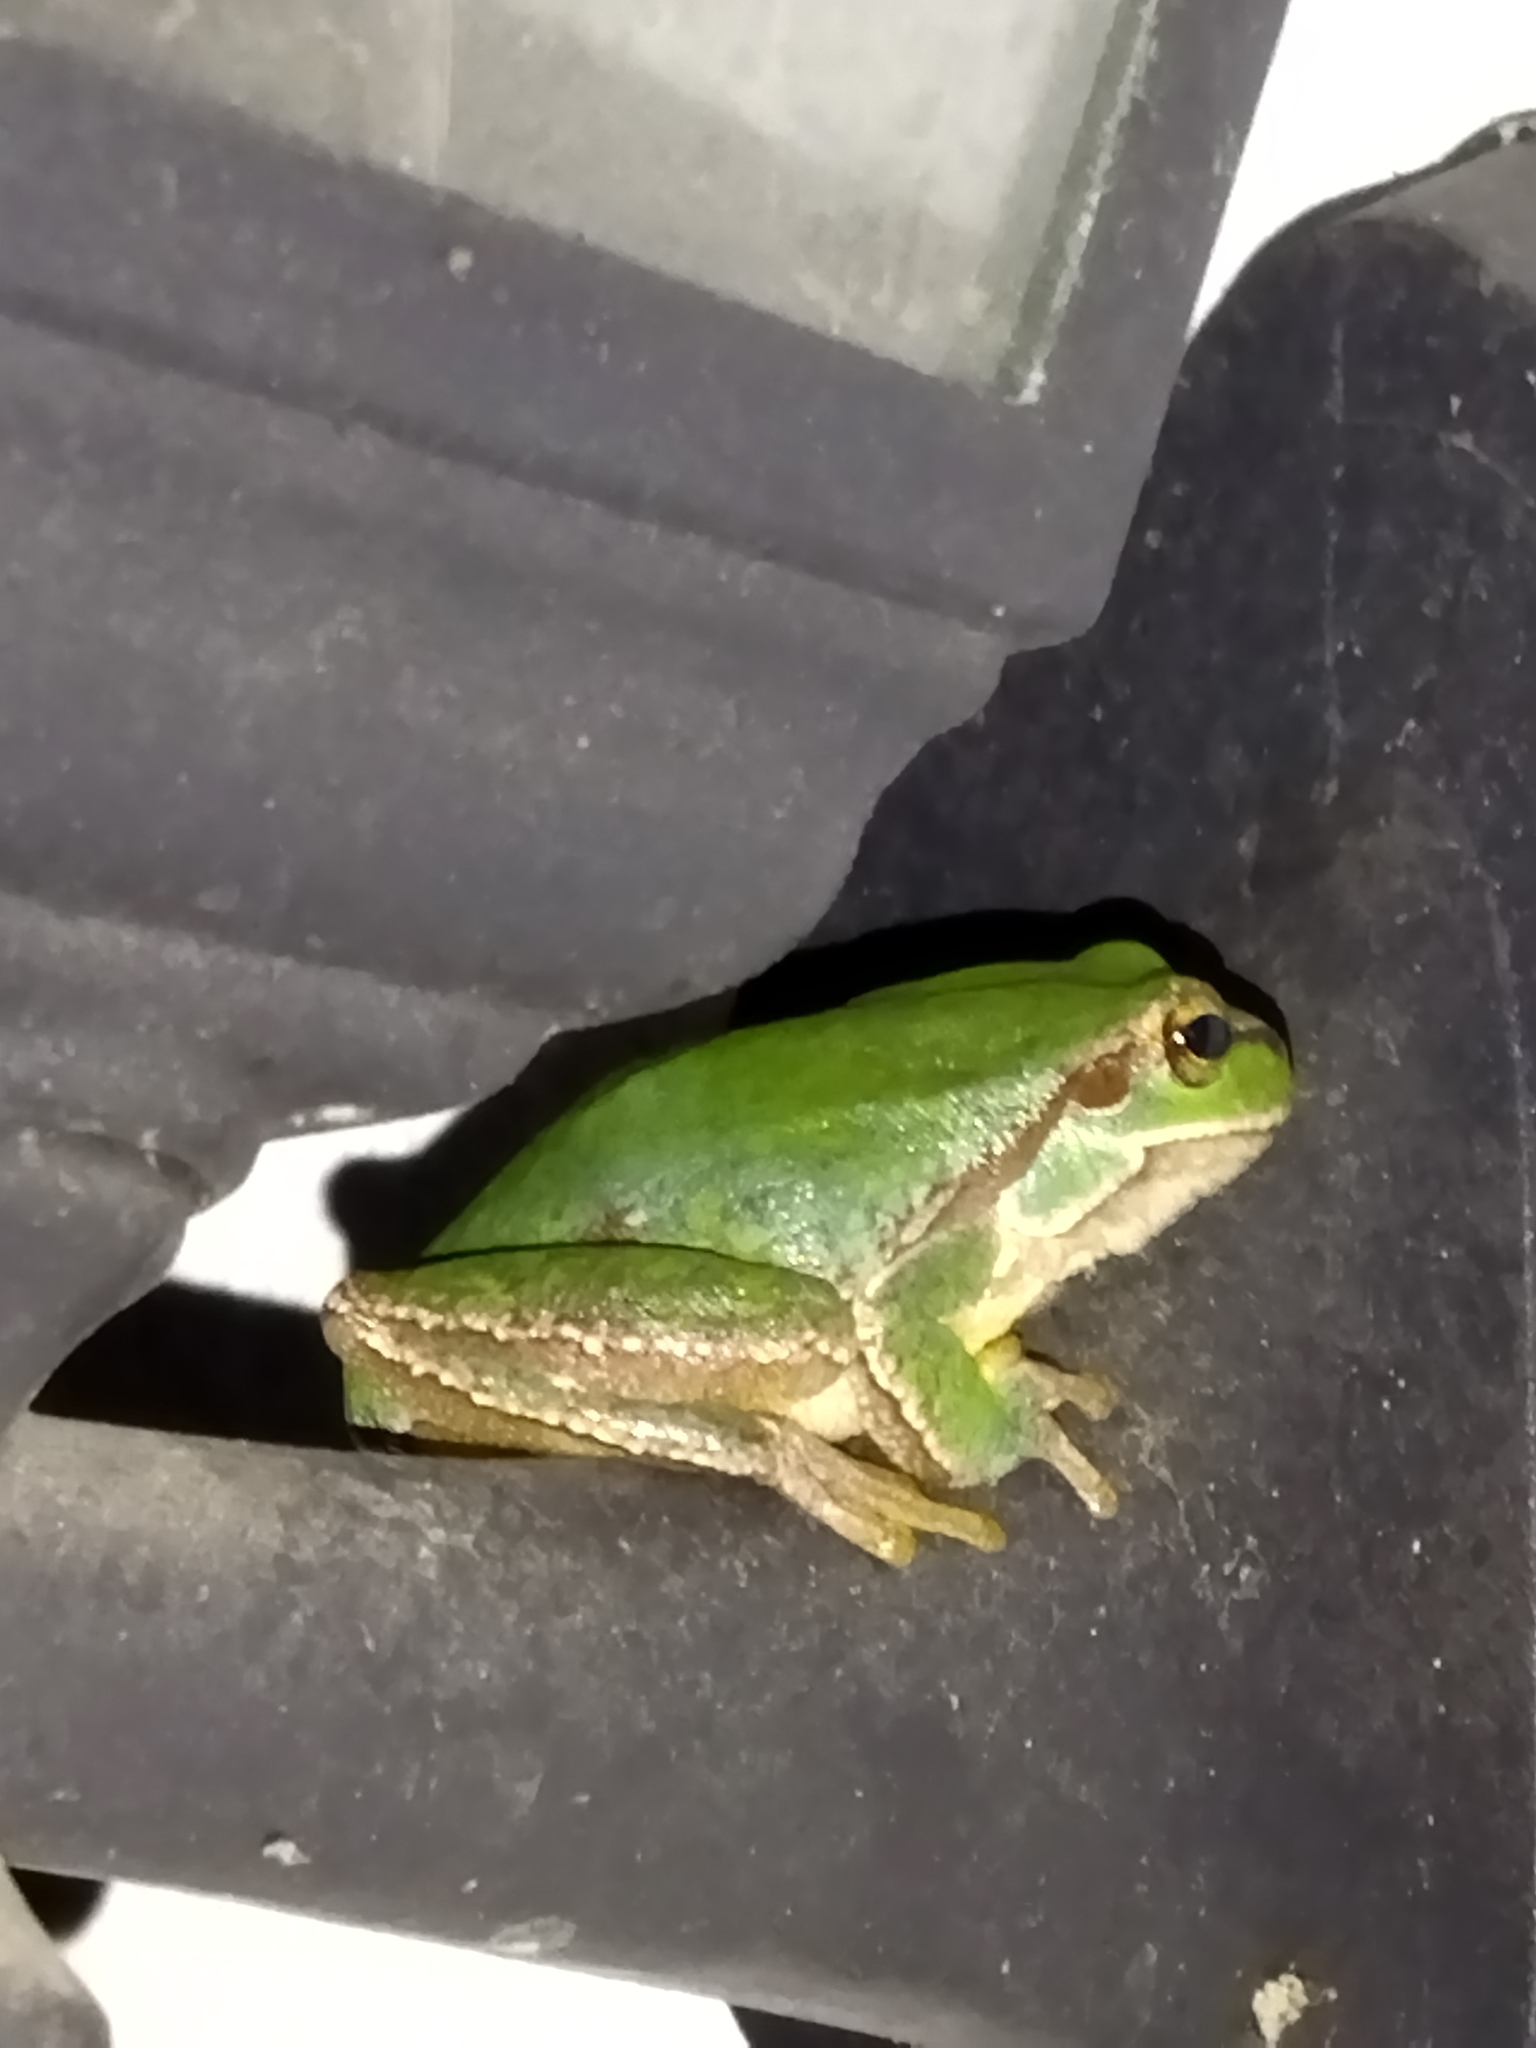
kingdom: Animalia
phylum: Chordata
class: Amphibia
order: Anura
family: Hylidae
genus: Hyla
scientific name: Hyla orientalis
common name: Caucasian treefrog
